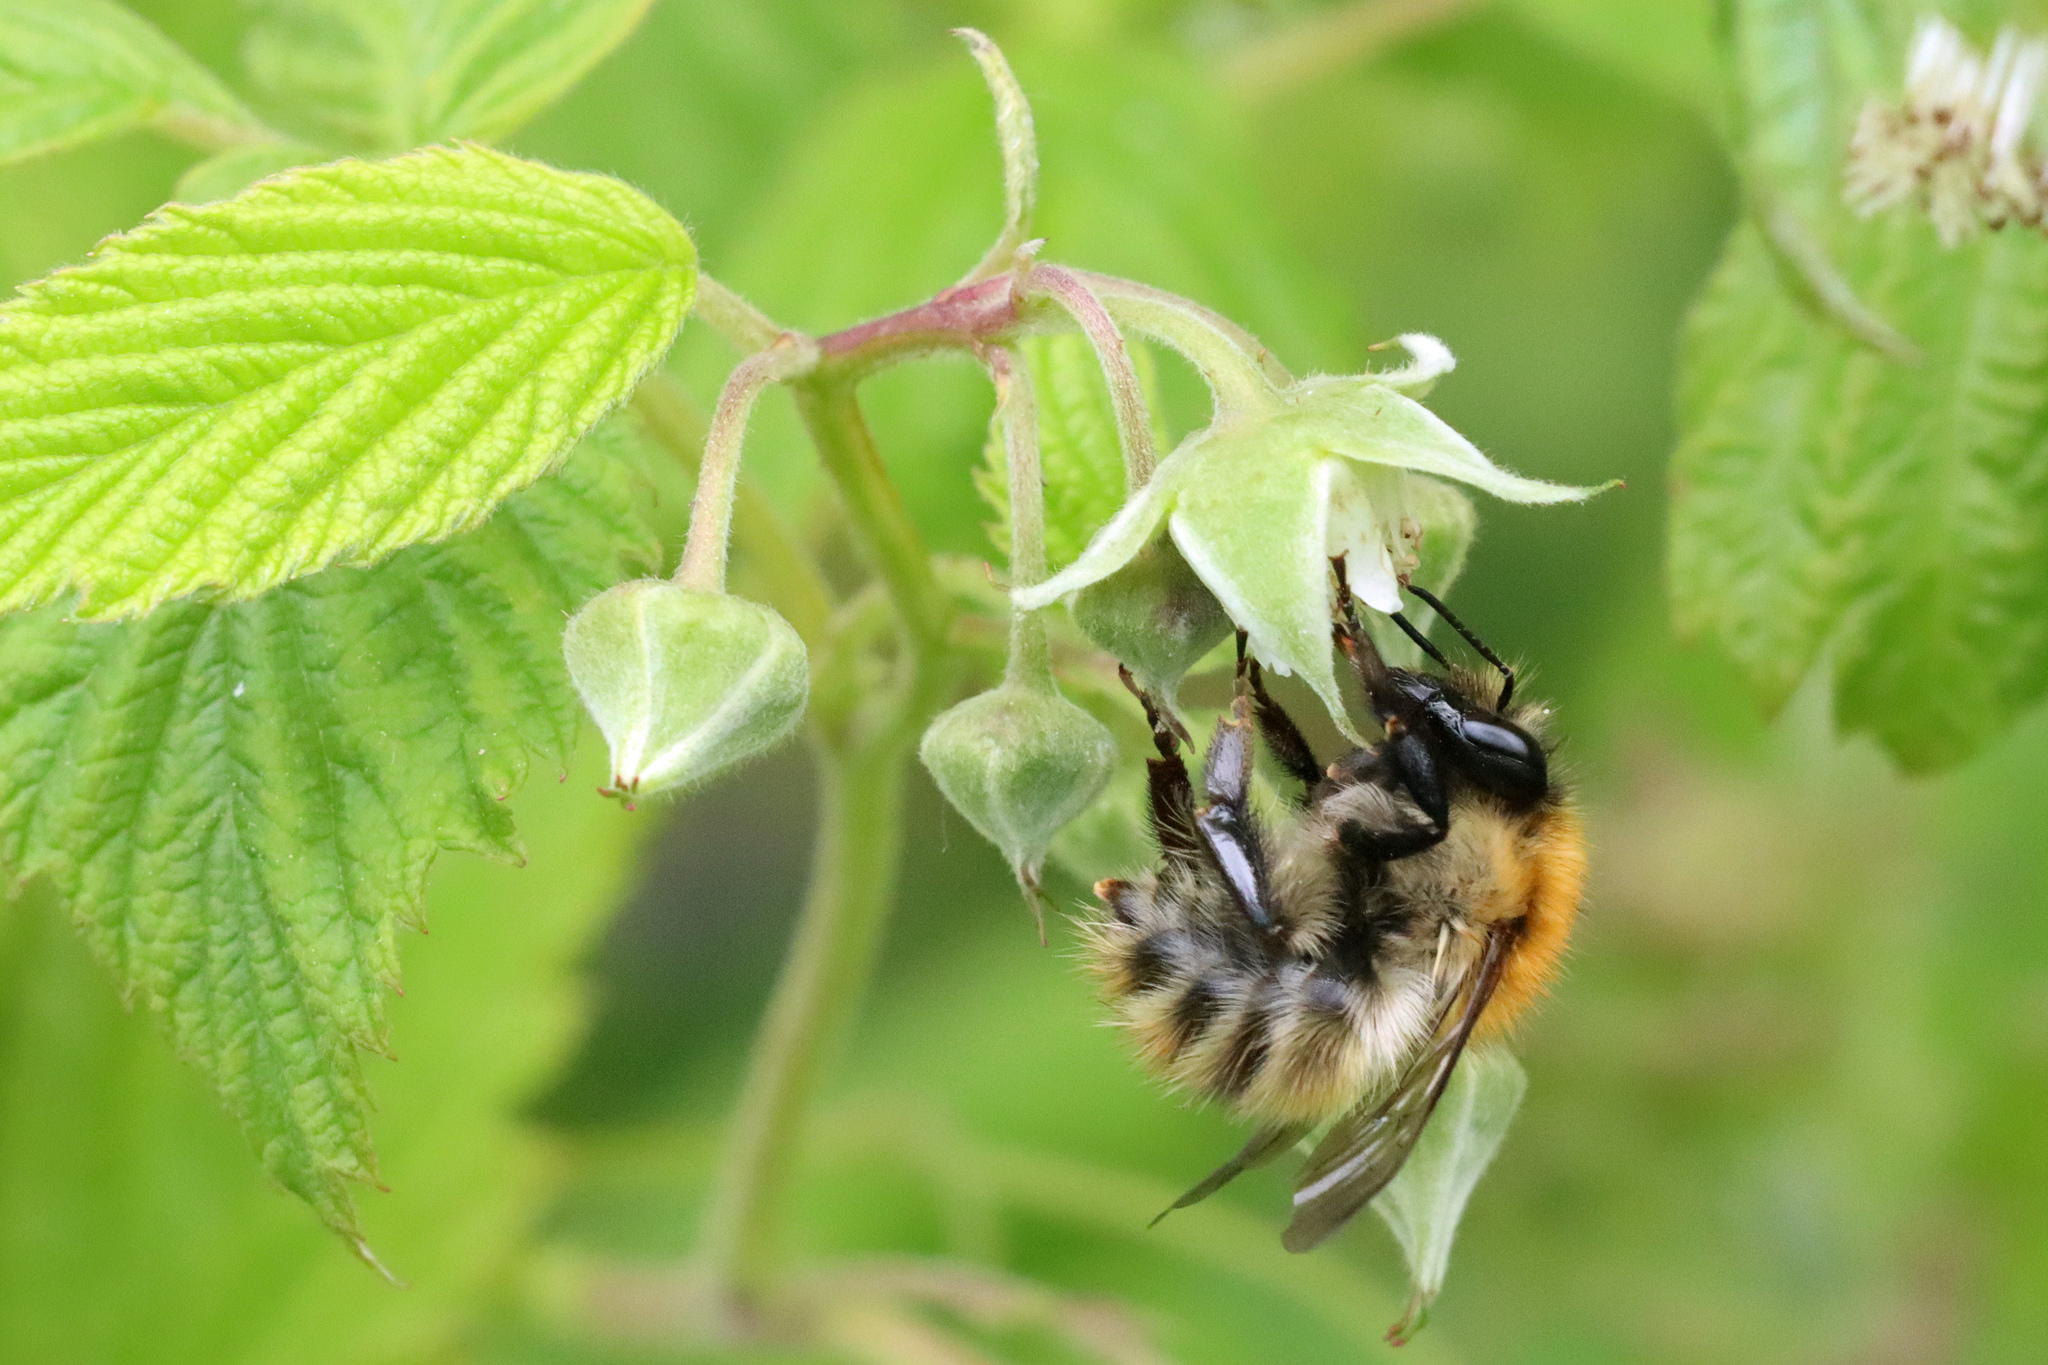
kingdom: Animalia
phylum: Arthropoda
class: Insecta
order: Hymenoptera
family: Apidae
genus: Bombus
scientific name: Bombus pascuorum
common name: Common carder bee
